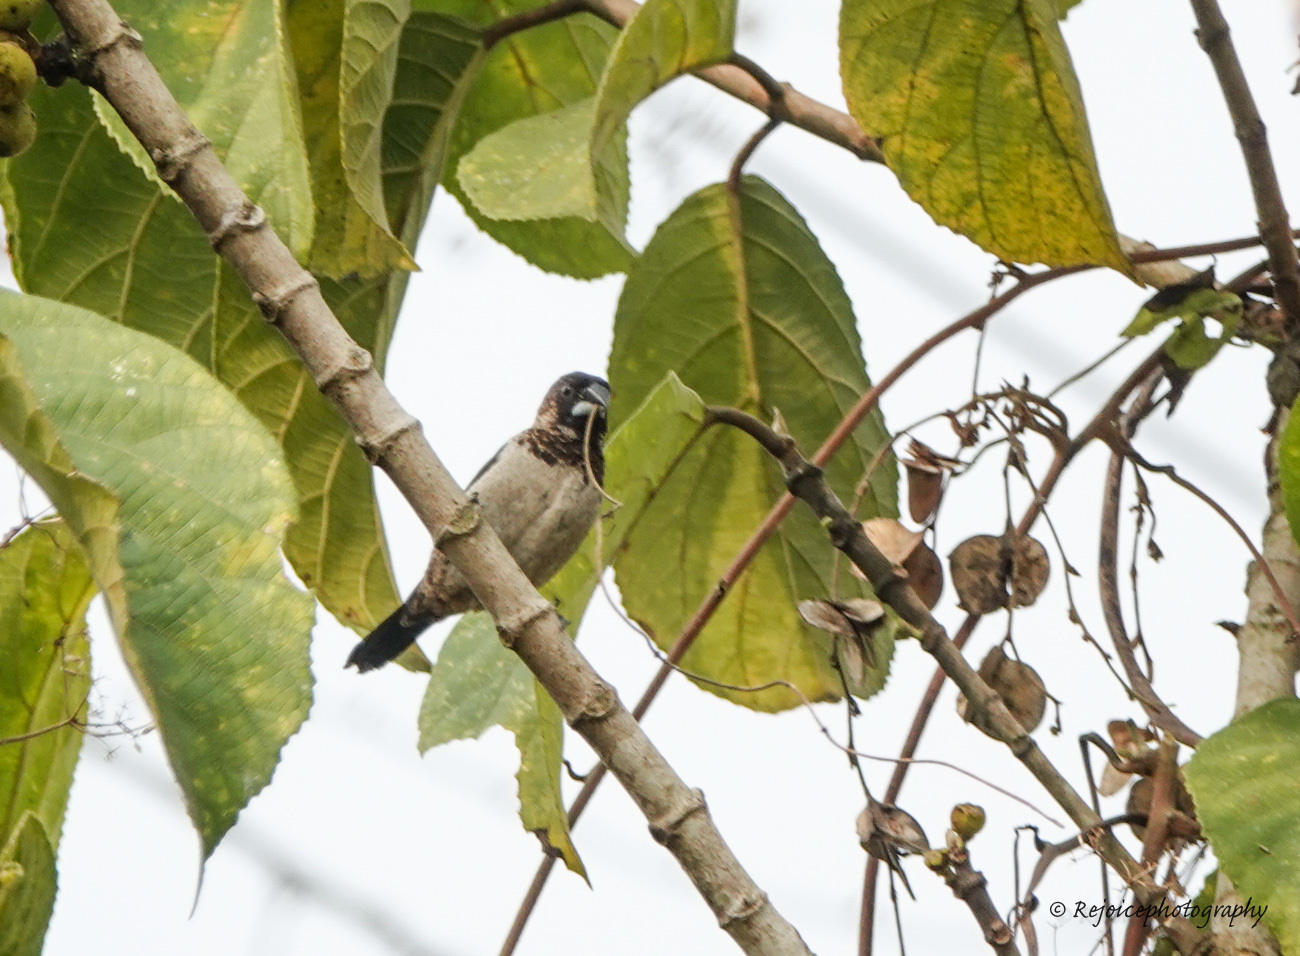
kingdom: Animalia
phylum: Chordata
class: Aves
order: Passeriformes
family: Estrildidae
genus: Lonchura
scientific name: Lonchura striata
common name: White-rumped munia
